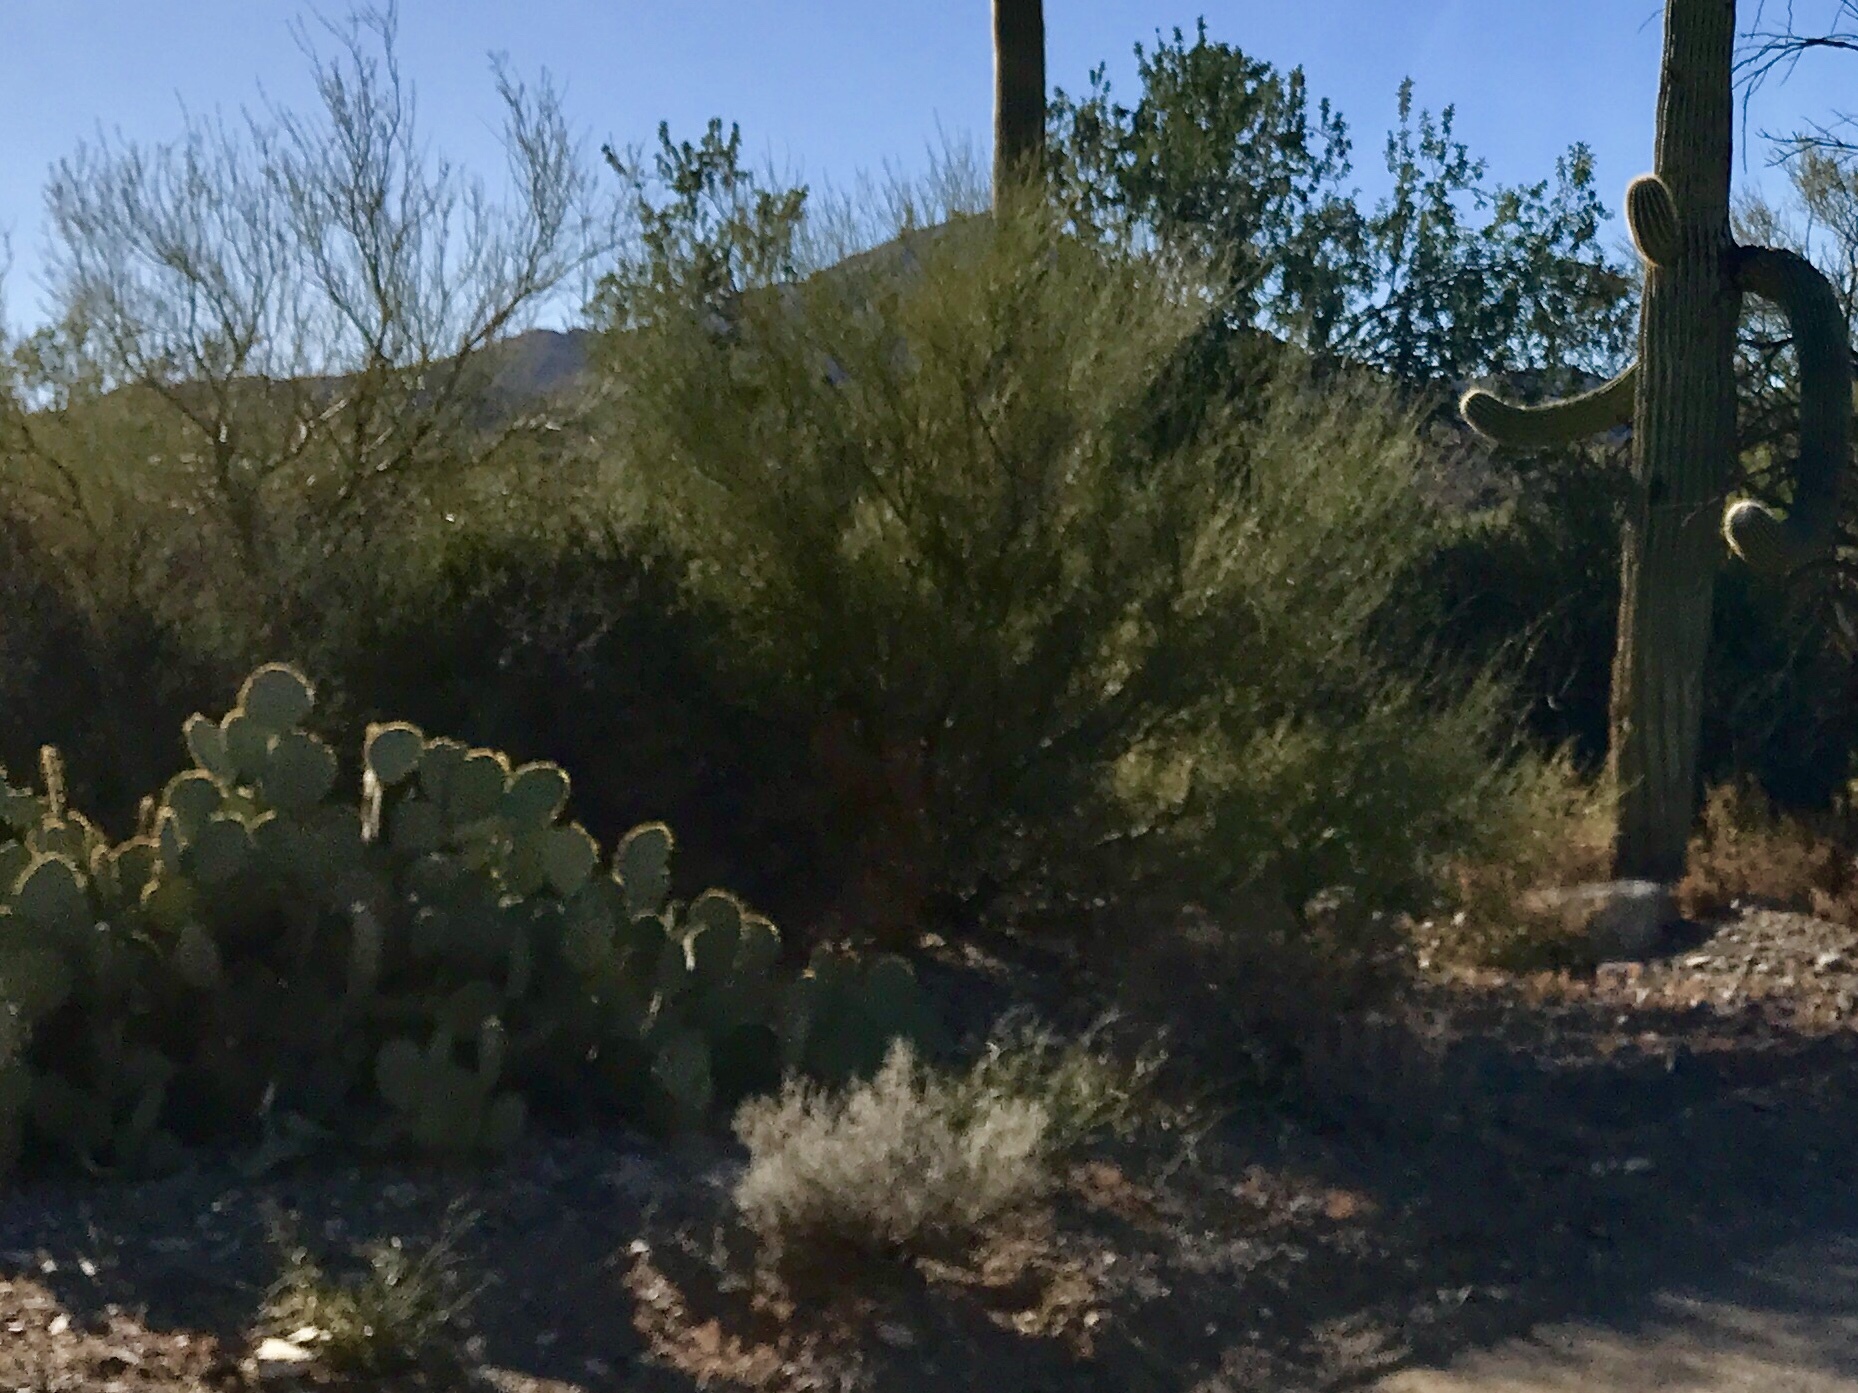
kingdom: Plantae
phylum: Tracheophyta
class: Magnoliopsida
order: Fabales
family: Fabaceae
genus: Parkinsonia
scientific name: Parkinsonia microphylla
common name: Yellow paloverde
